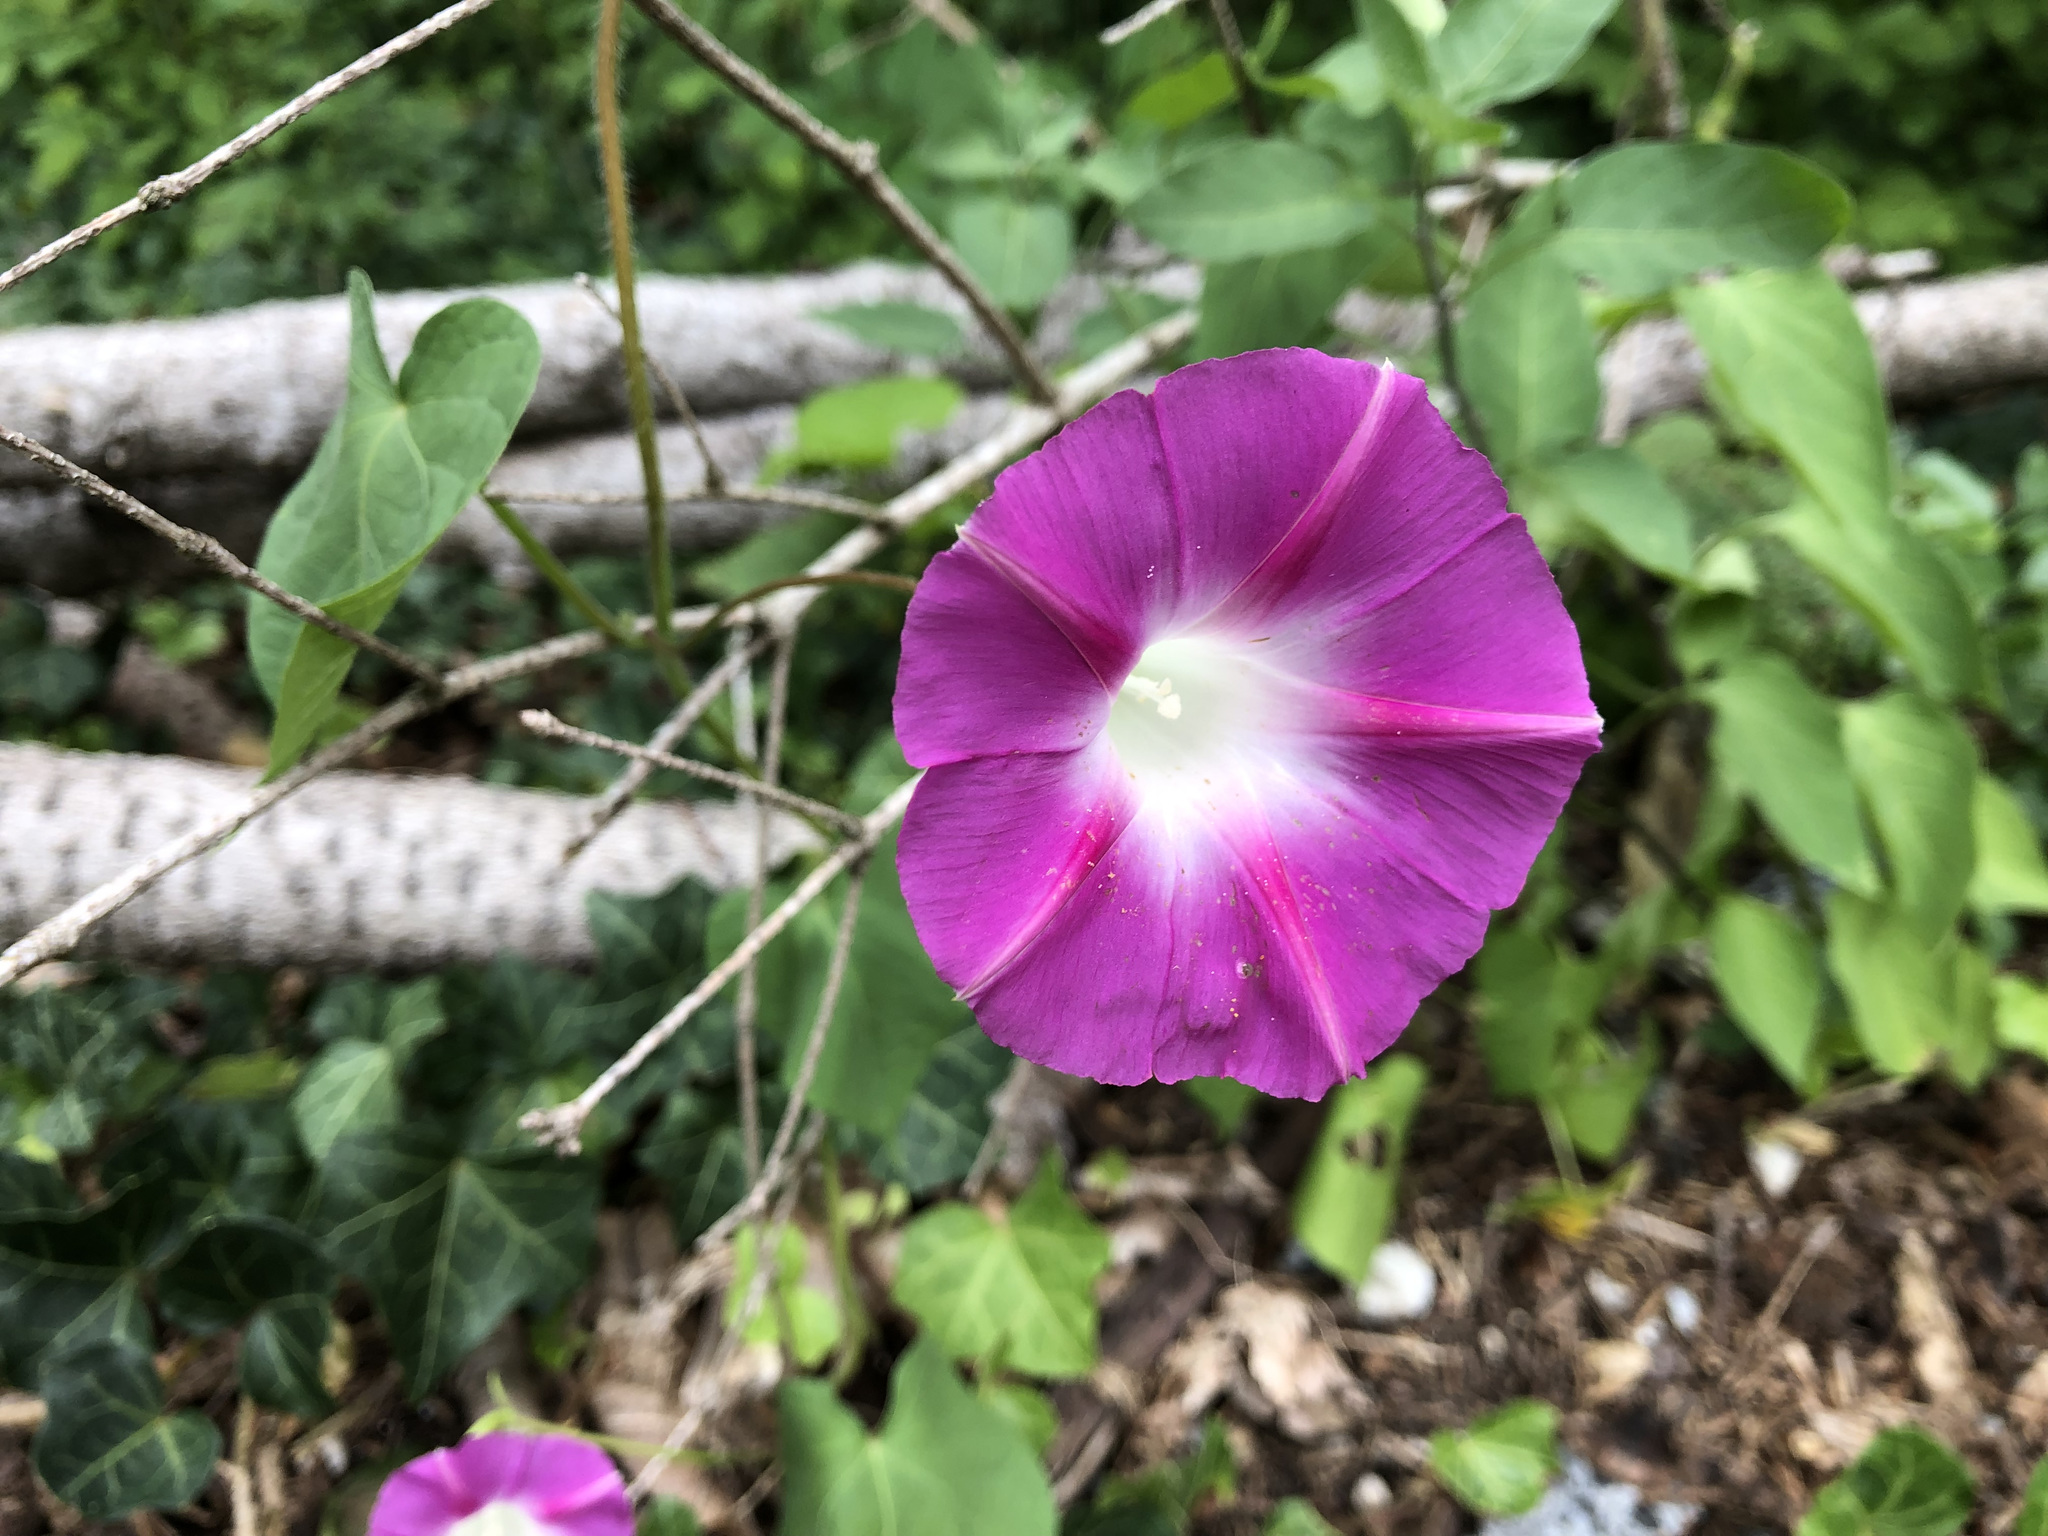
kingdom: Plantae
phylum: Tracheophyta
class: Magnoliopsida
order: Solanales
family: Convolvulaceae
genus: Ipomoea
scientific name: Ipomoea purpurea
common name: Common morning-glory
